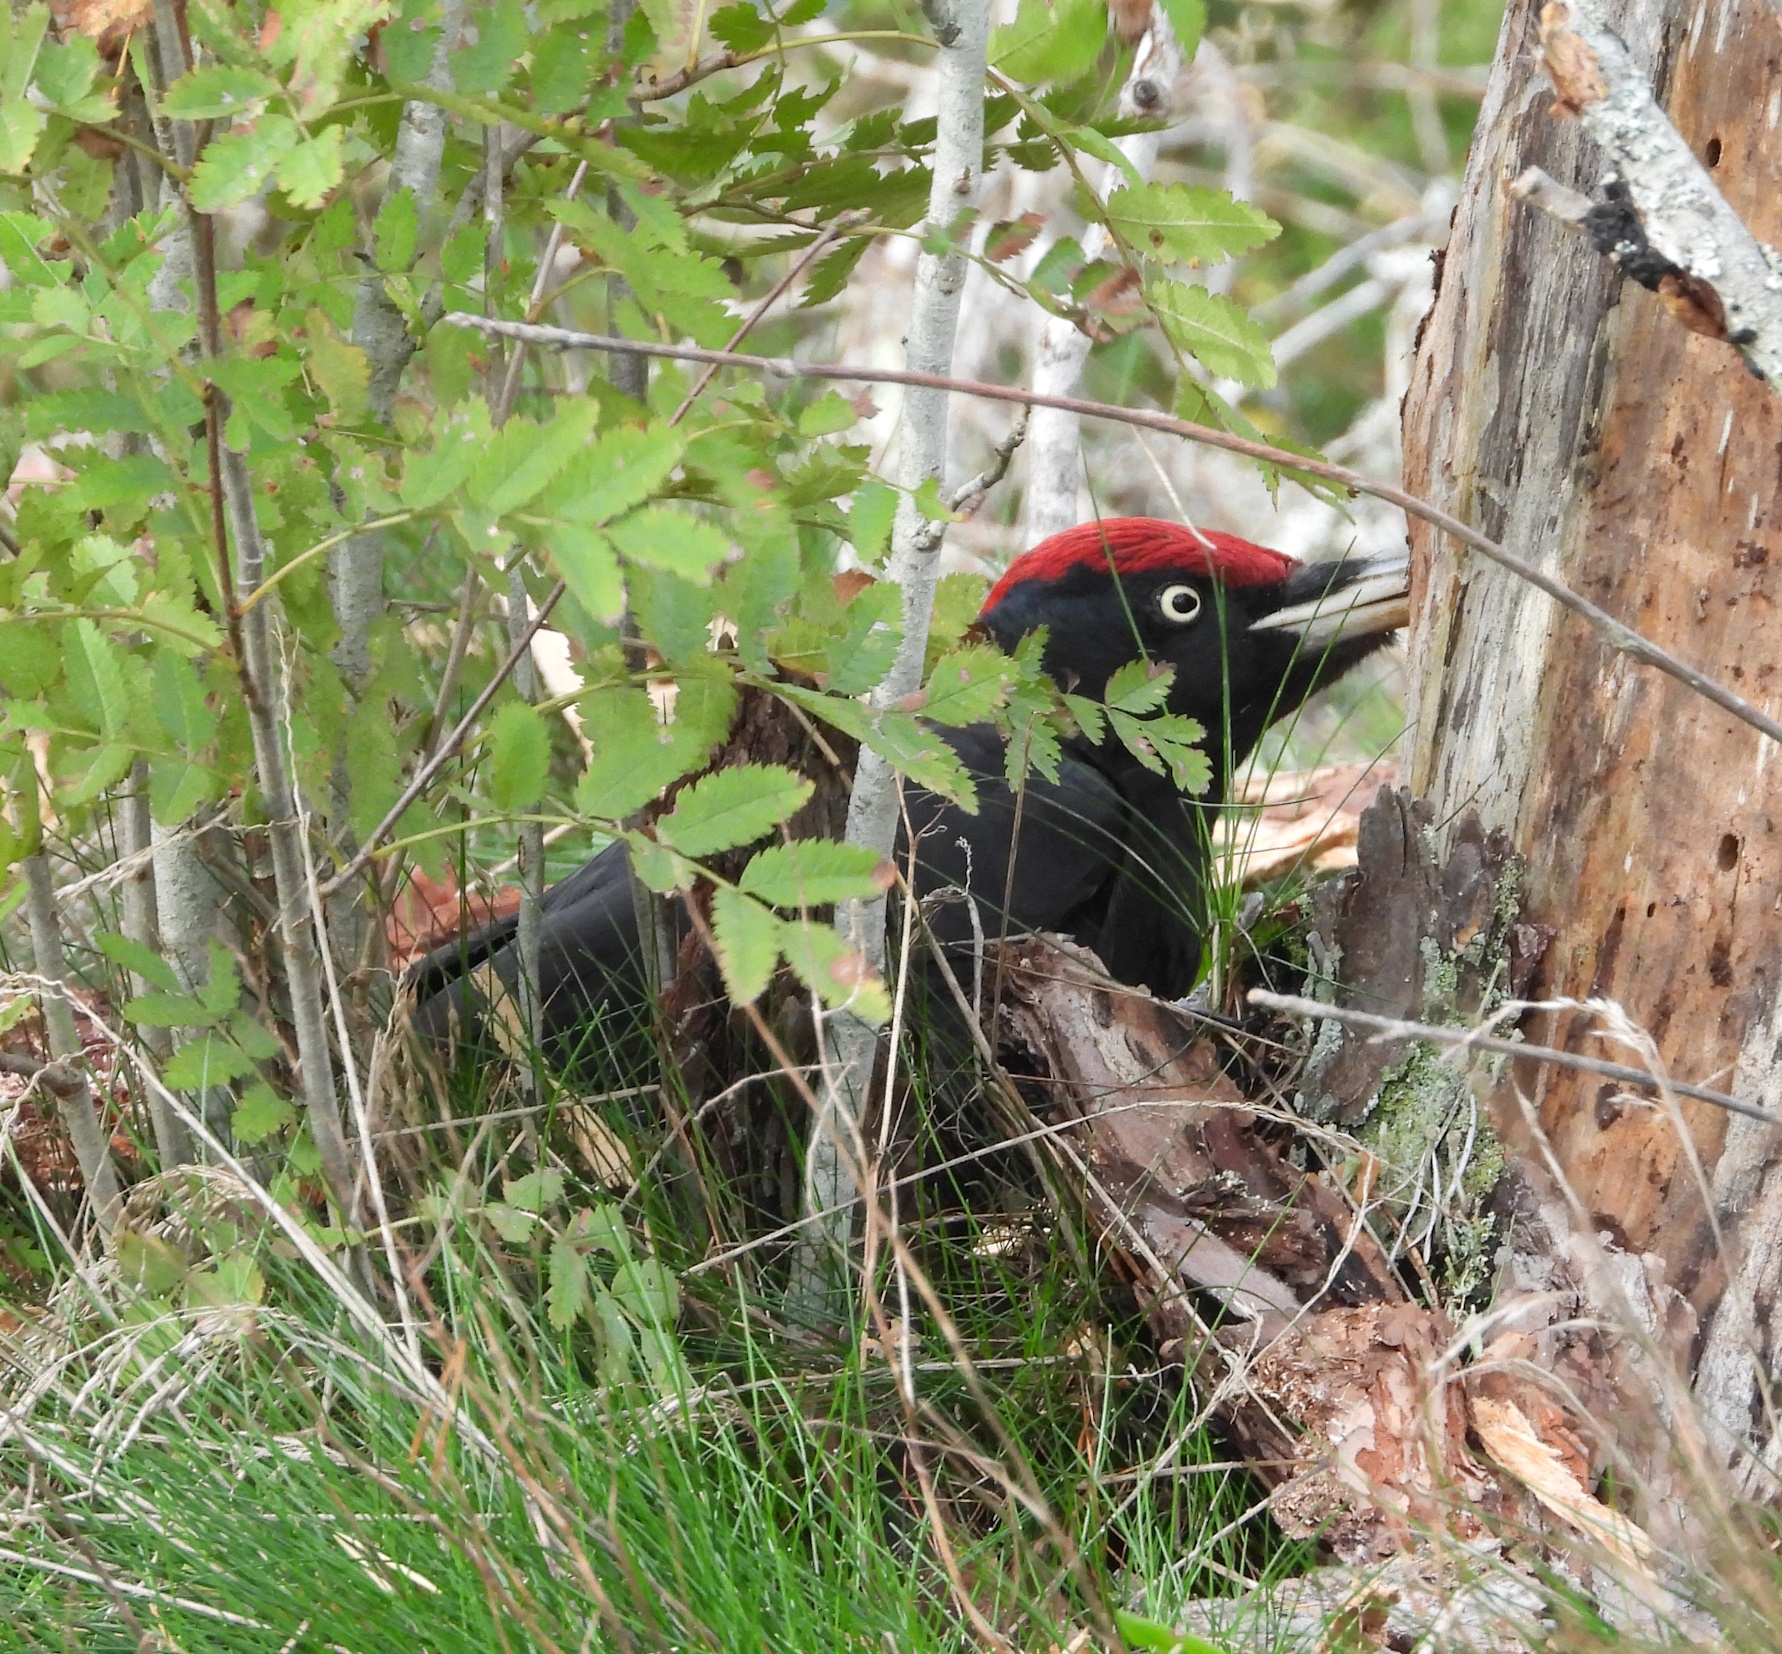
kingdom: Animalia
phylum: Chordata
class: Aves
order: Piciformes
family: Picidae
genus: Dryocopus
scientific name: Dryocopus martius
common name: Black woodpecker
